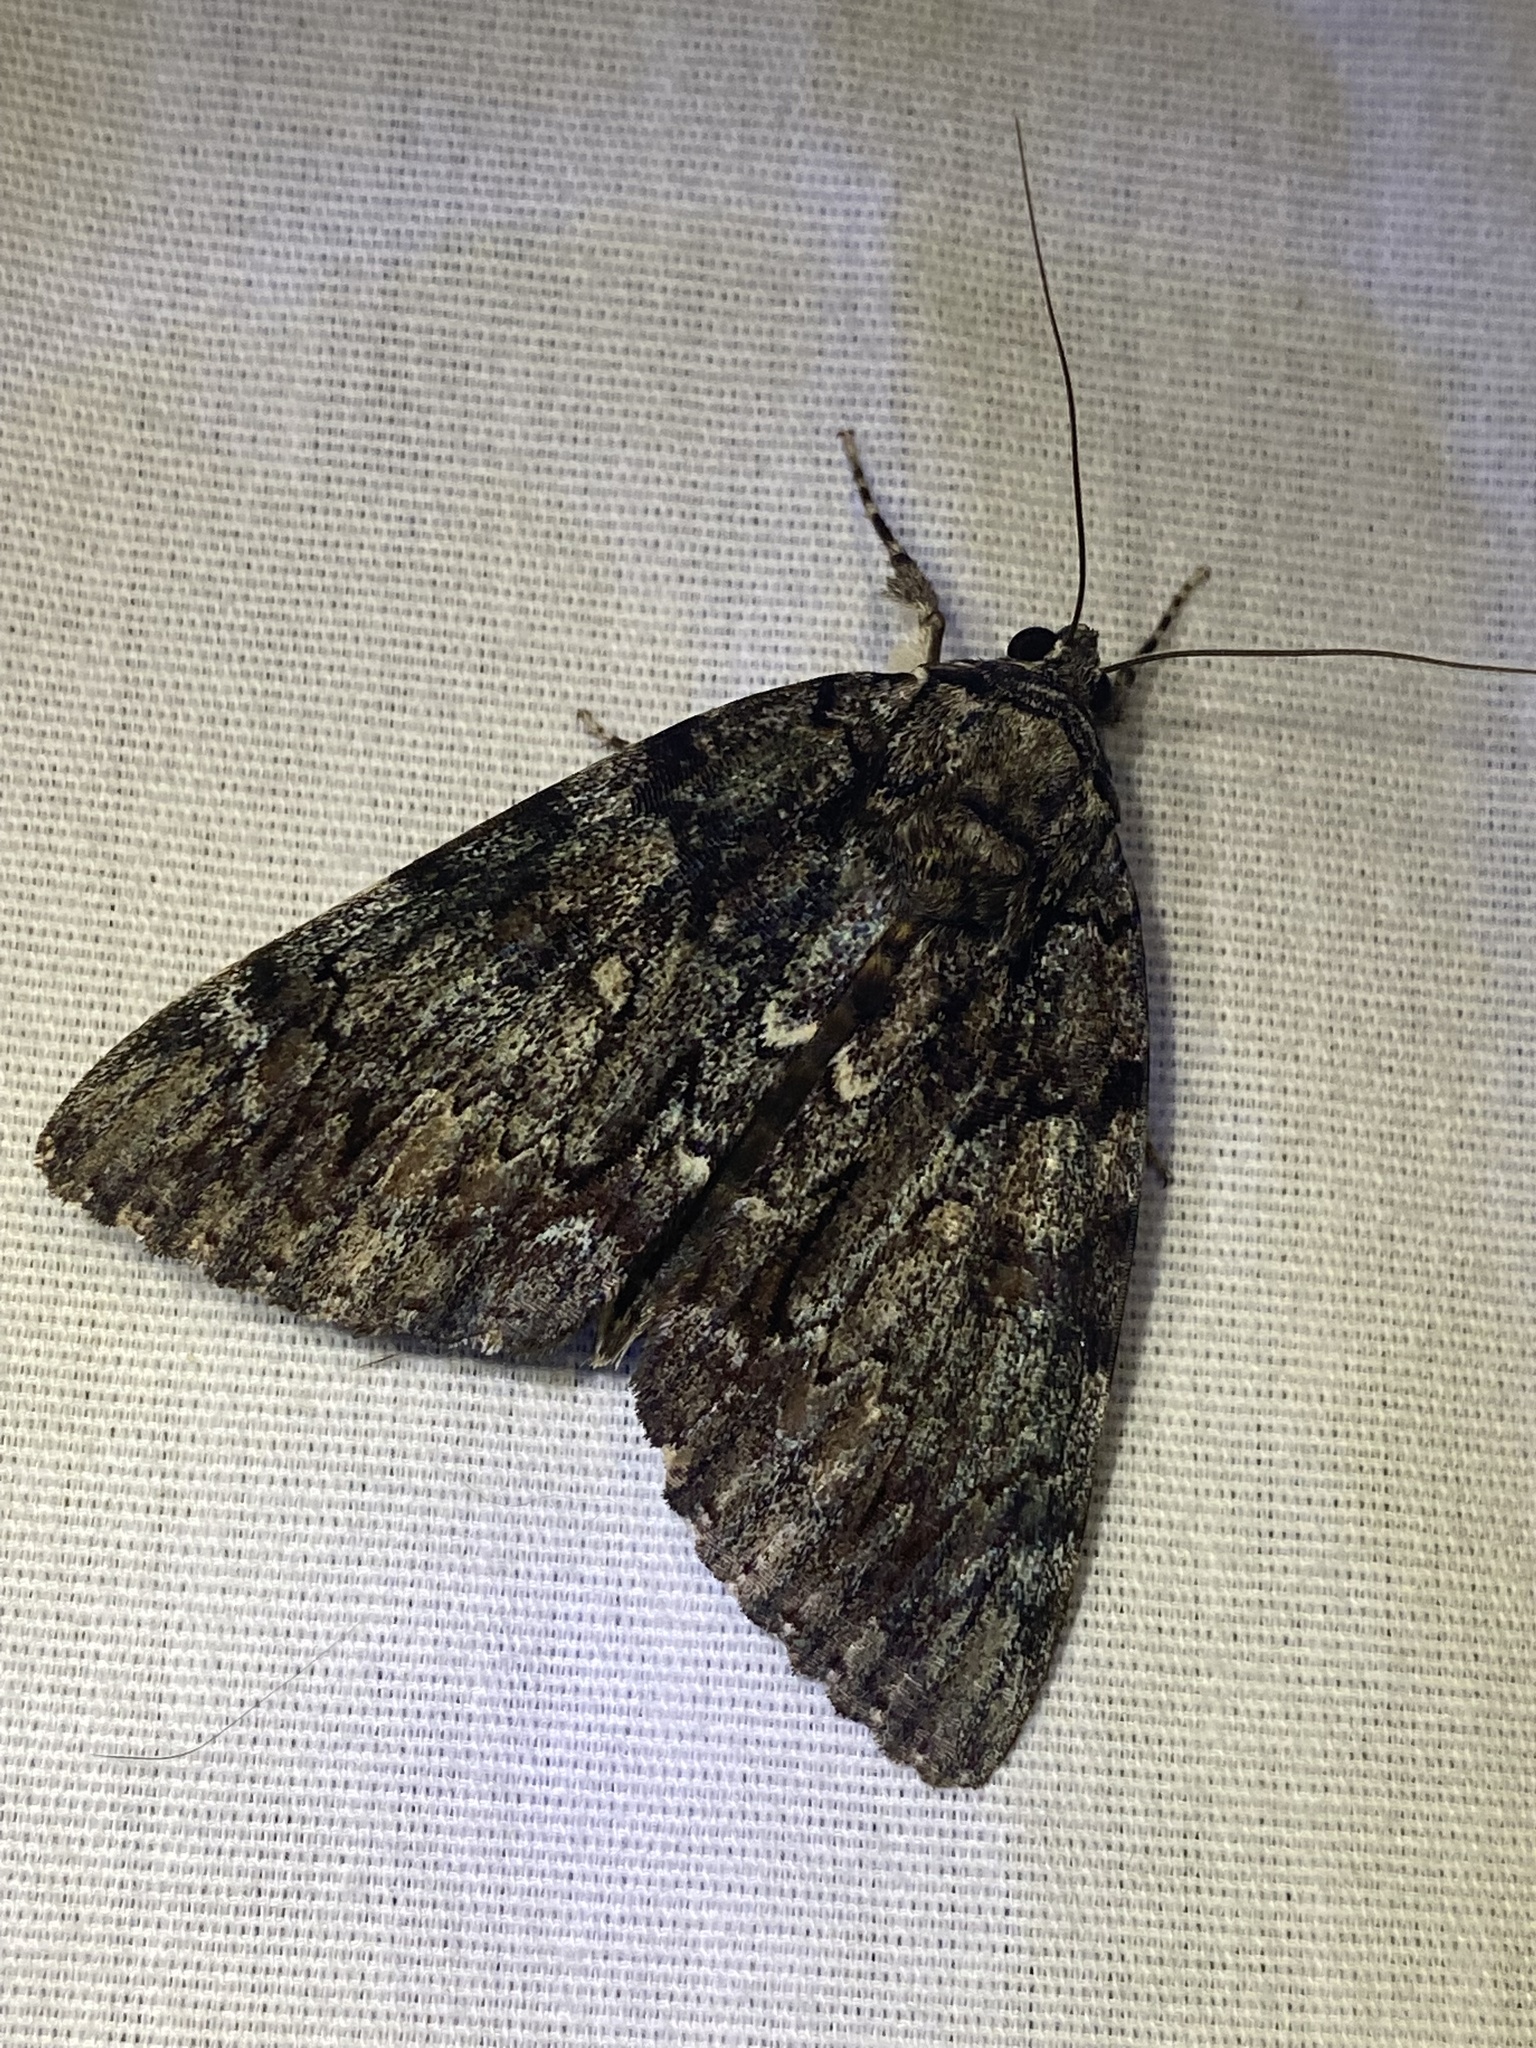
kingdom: Animalia
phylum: Arthropoda
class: Insecta
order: Lepidoptera
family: Erebidae
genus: Catocala
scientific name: Catocala lacrymosa
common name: Tearful underwing
